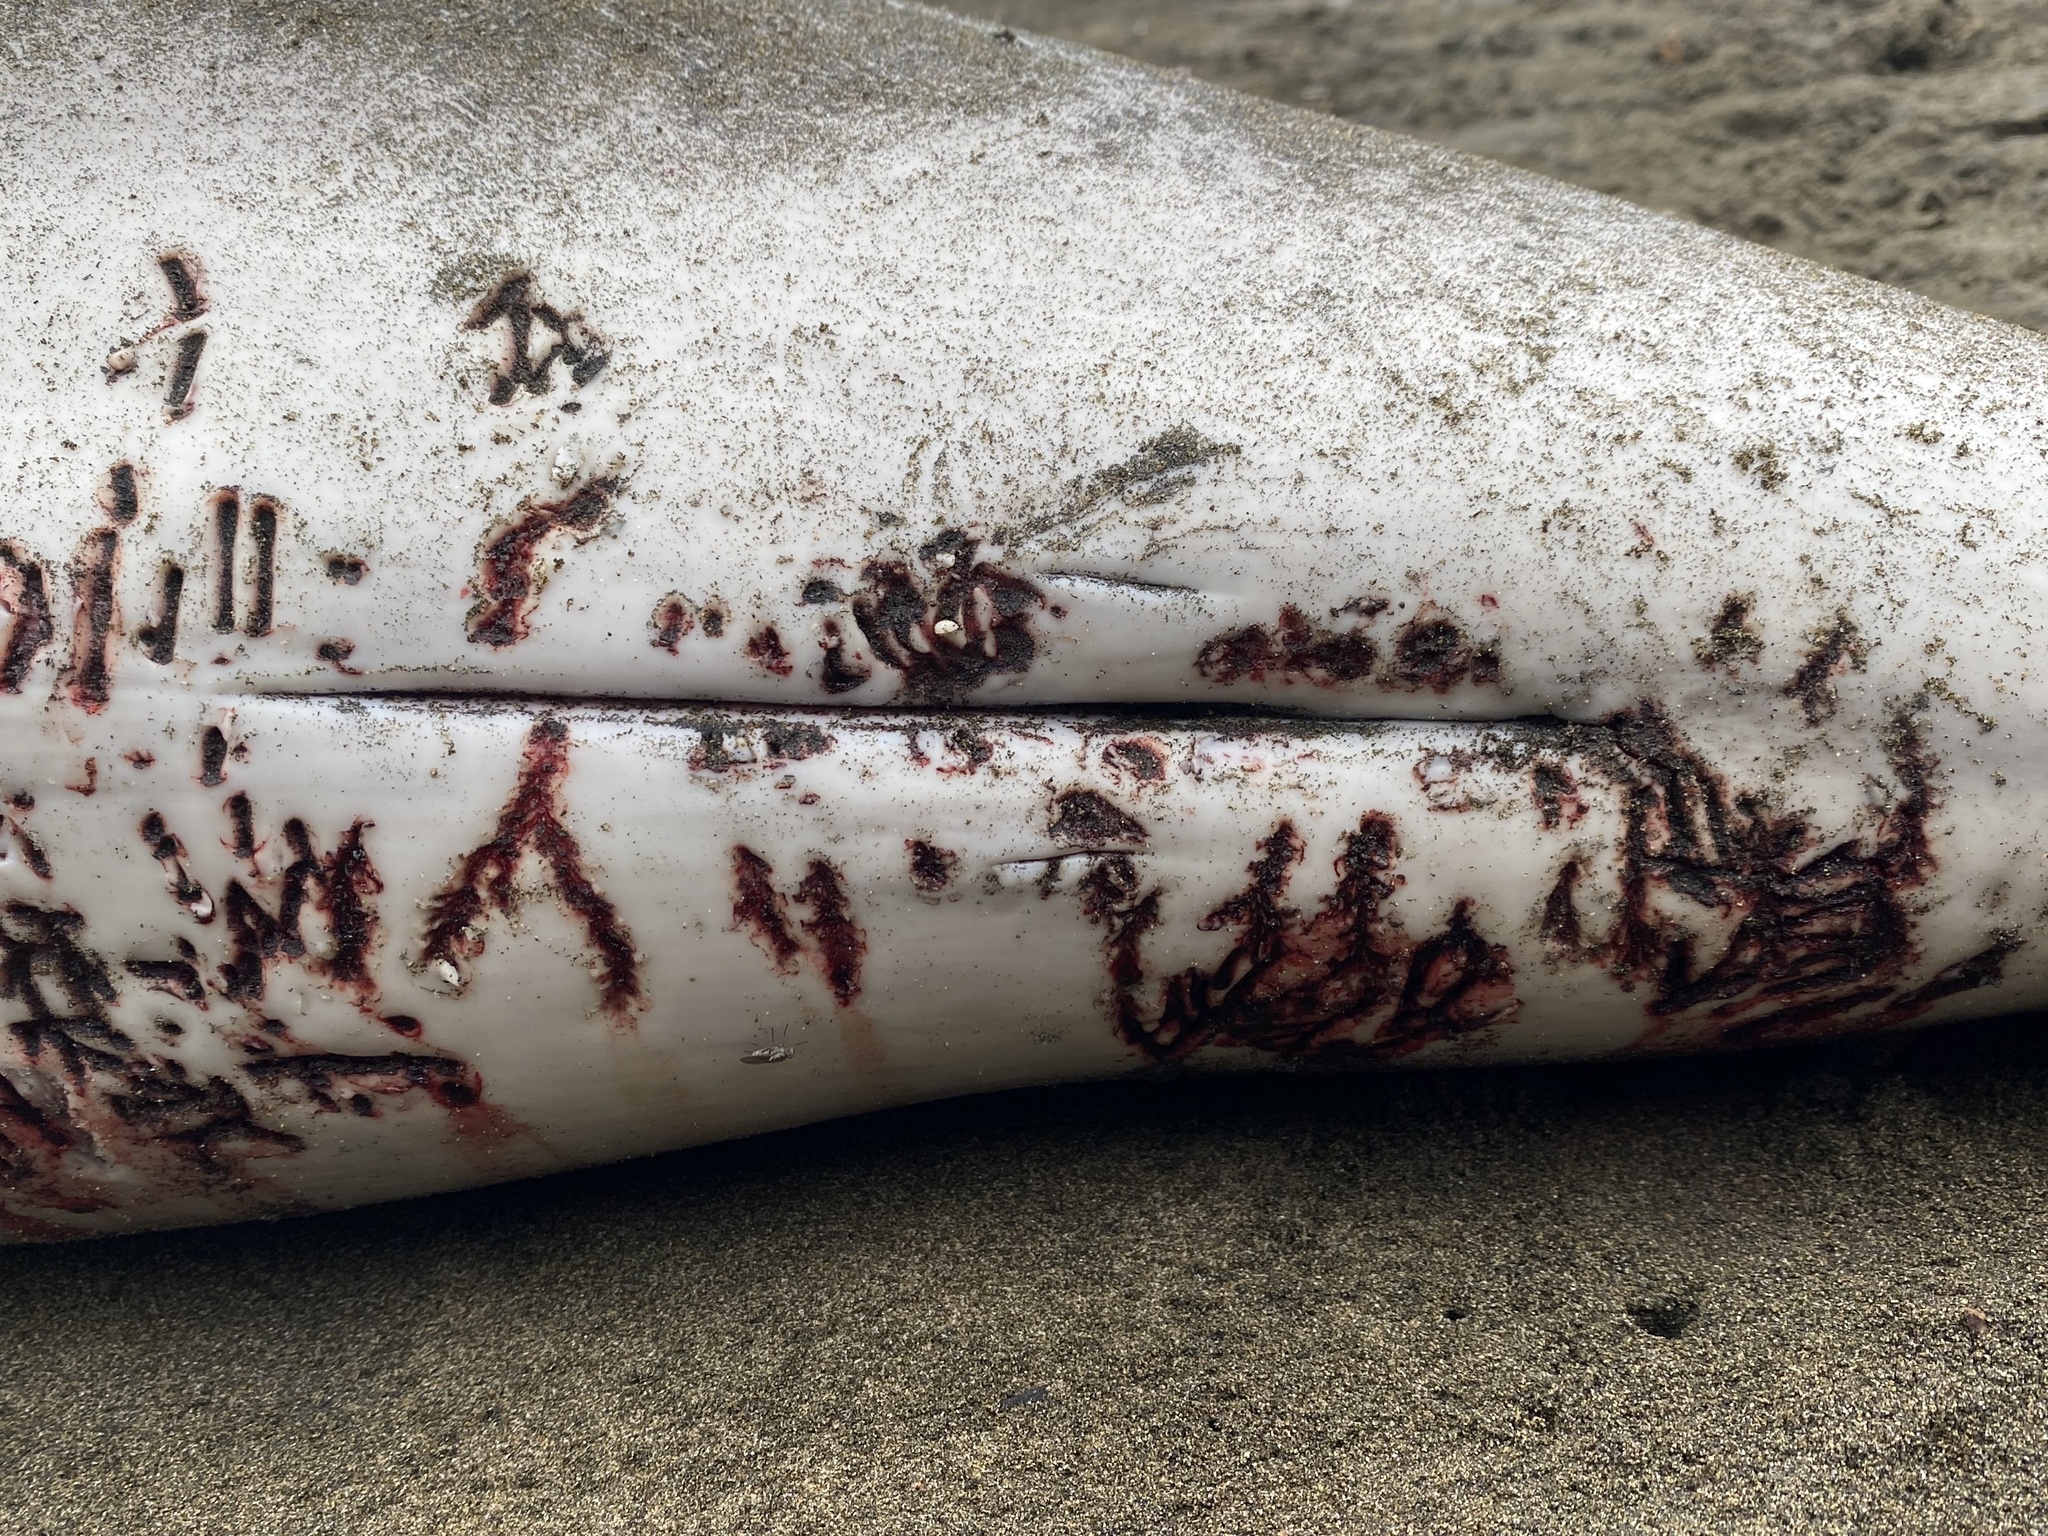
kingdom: Animalia
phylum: Chordata
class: Mammalia
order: Cetacea
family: Phocoenidae
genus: Phocoena
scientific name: Phocoena phocoena
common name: Harbor porpoise
